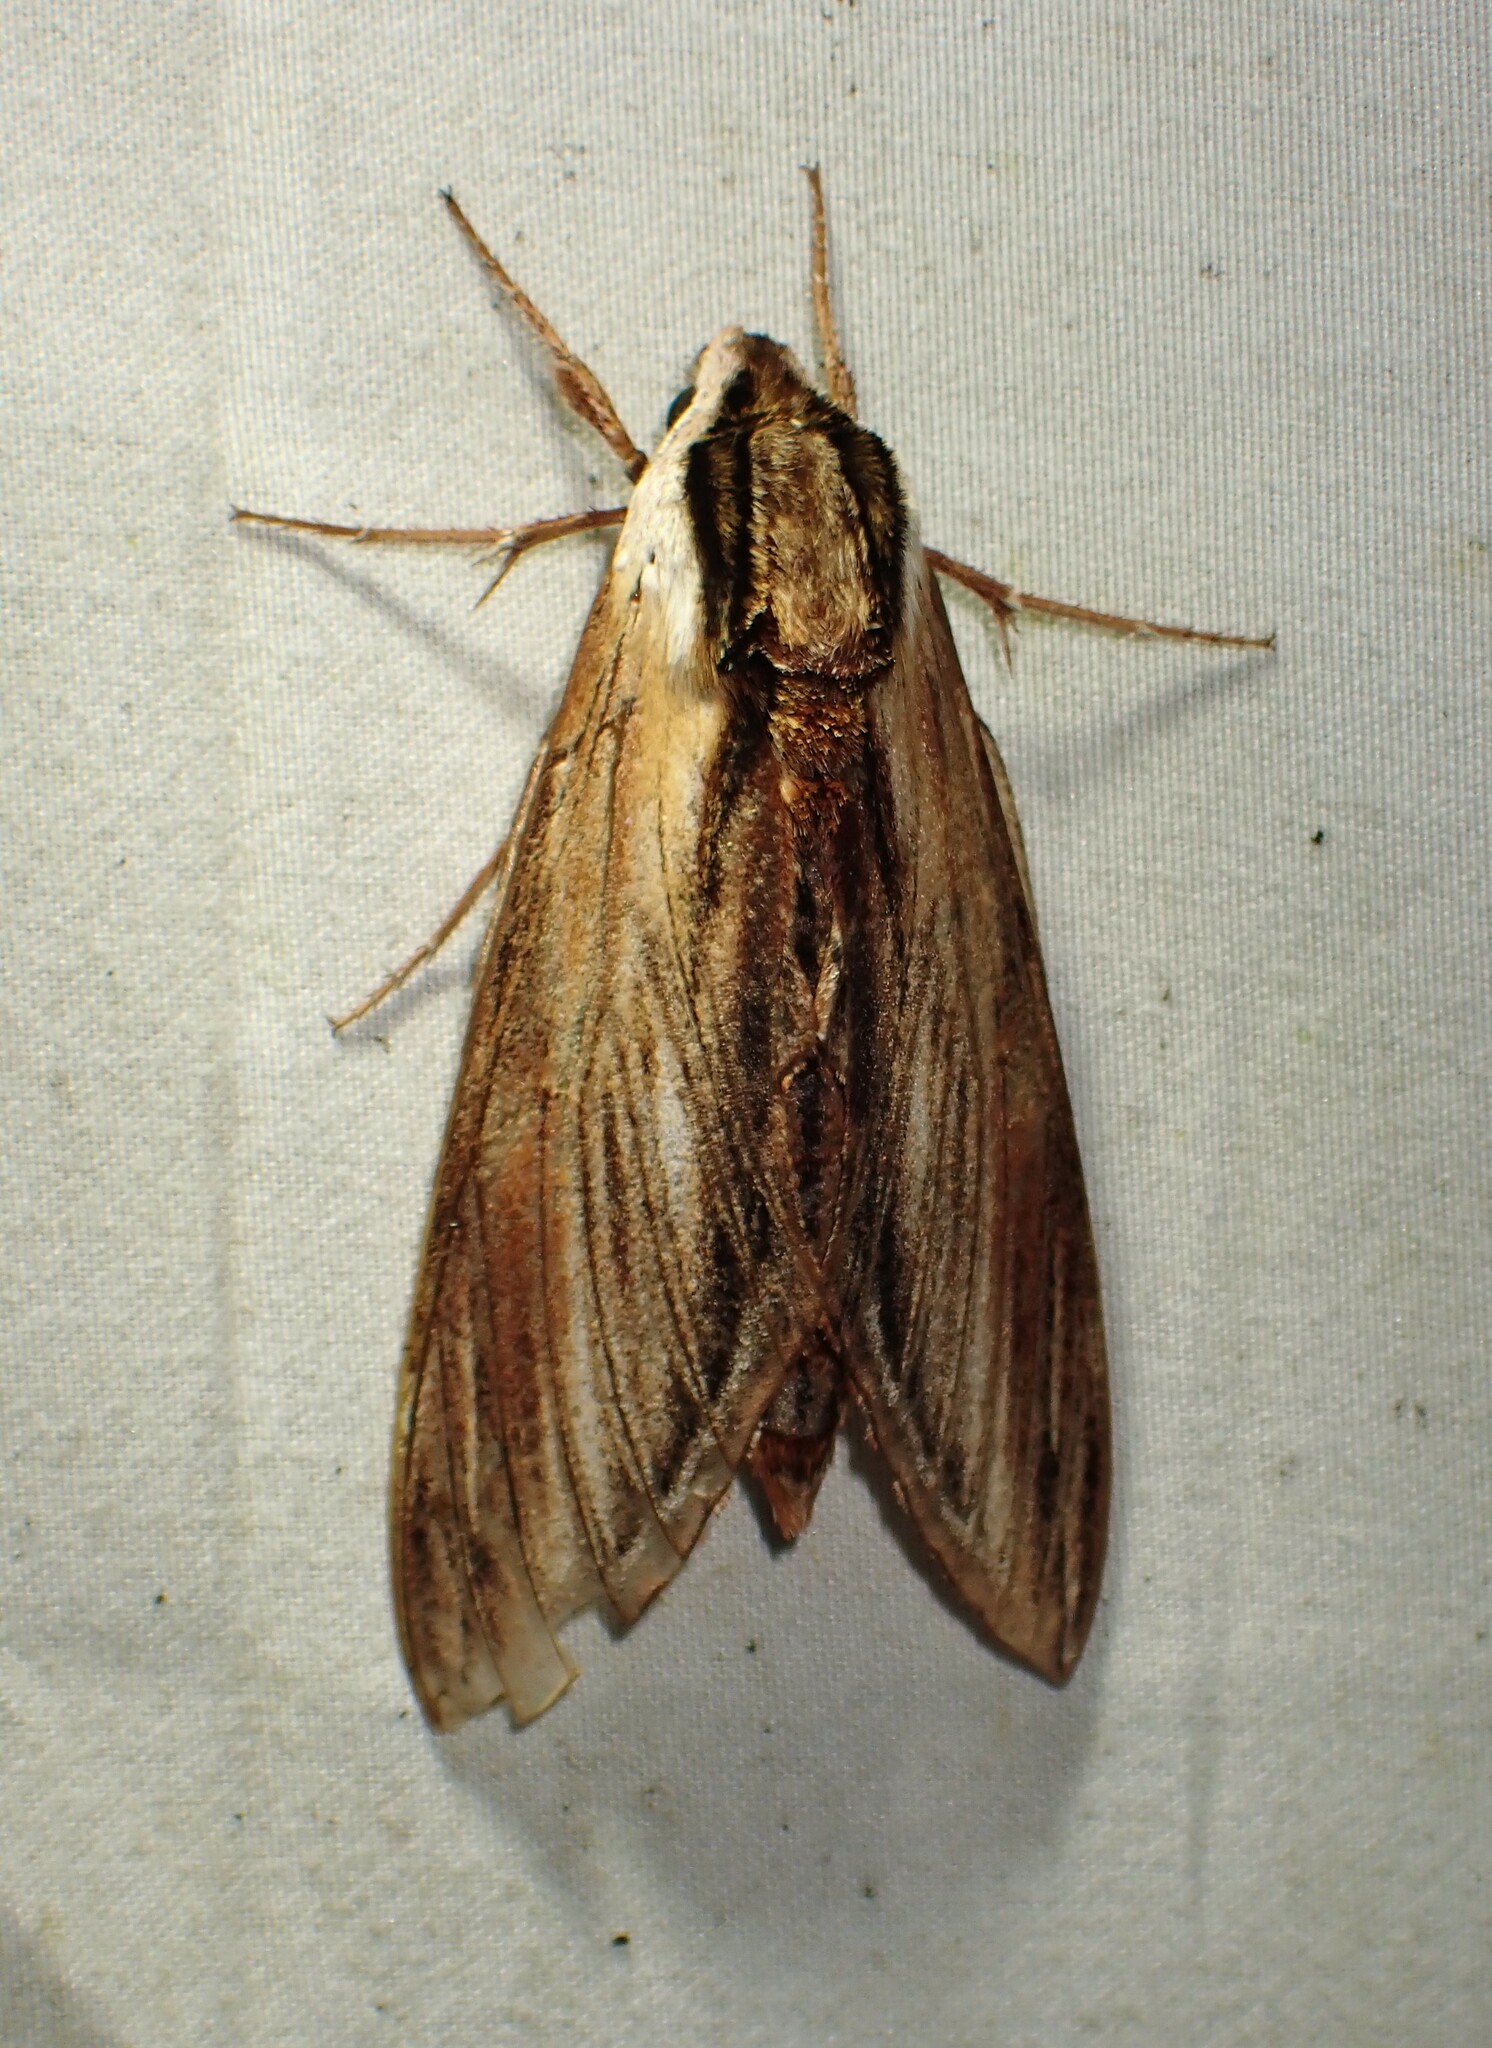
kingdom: Animalia
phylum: Arthropoda
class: Insecta
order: Lepidoptera
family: Sphingidae
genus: Sphinx
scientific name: Sphinx kalmiae
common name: Laurel sphinx
